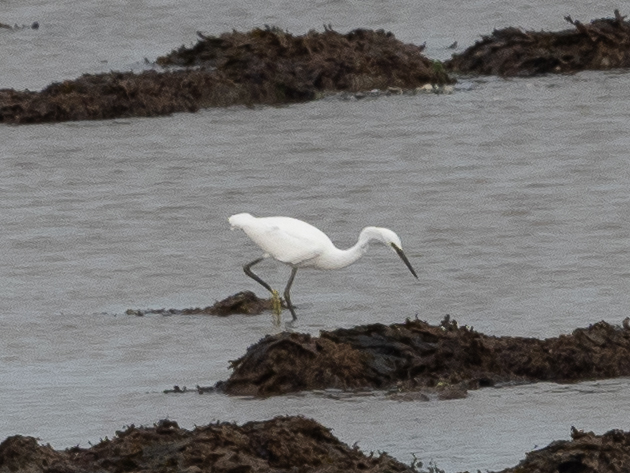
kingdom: Animalia
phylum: Chordata
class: Aves
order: Pelecaniformes
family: Ardeidae
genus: Egretta
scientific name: Egretta garzetta
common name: Little egret
